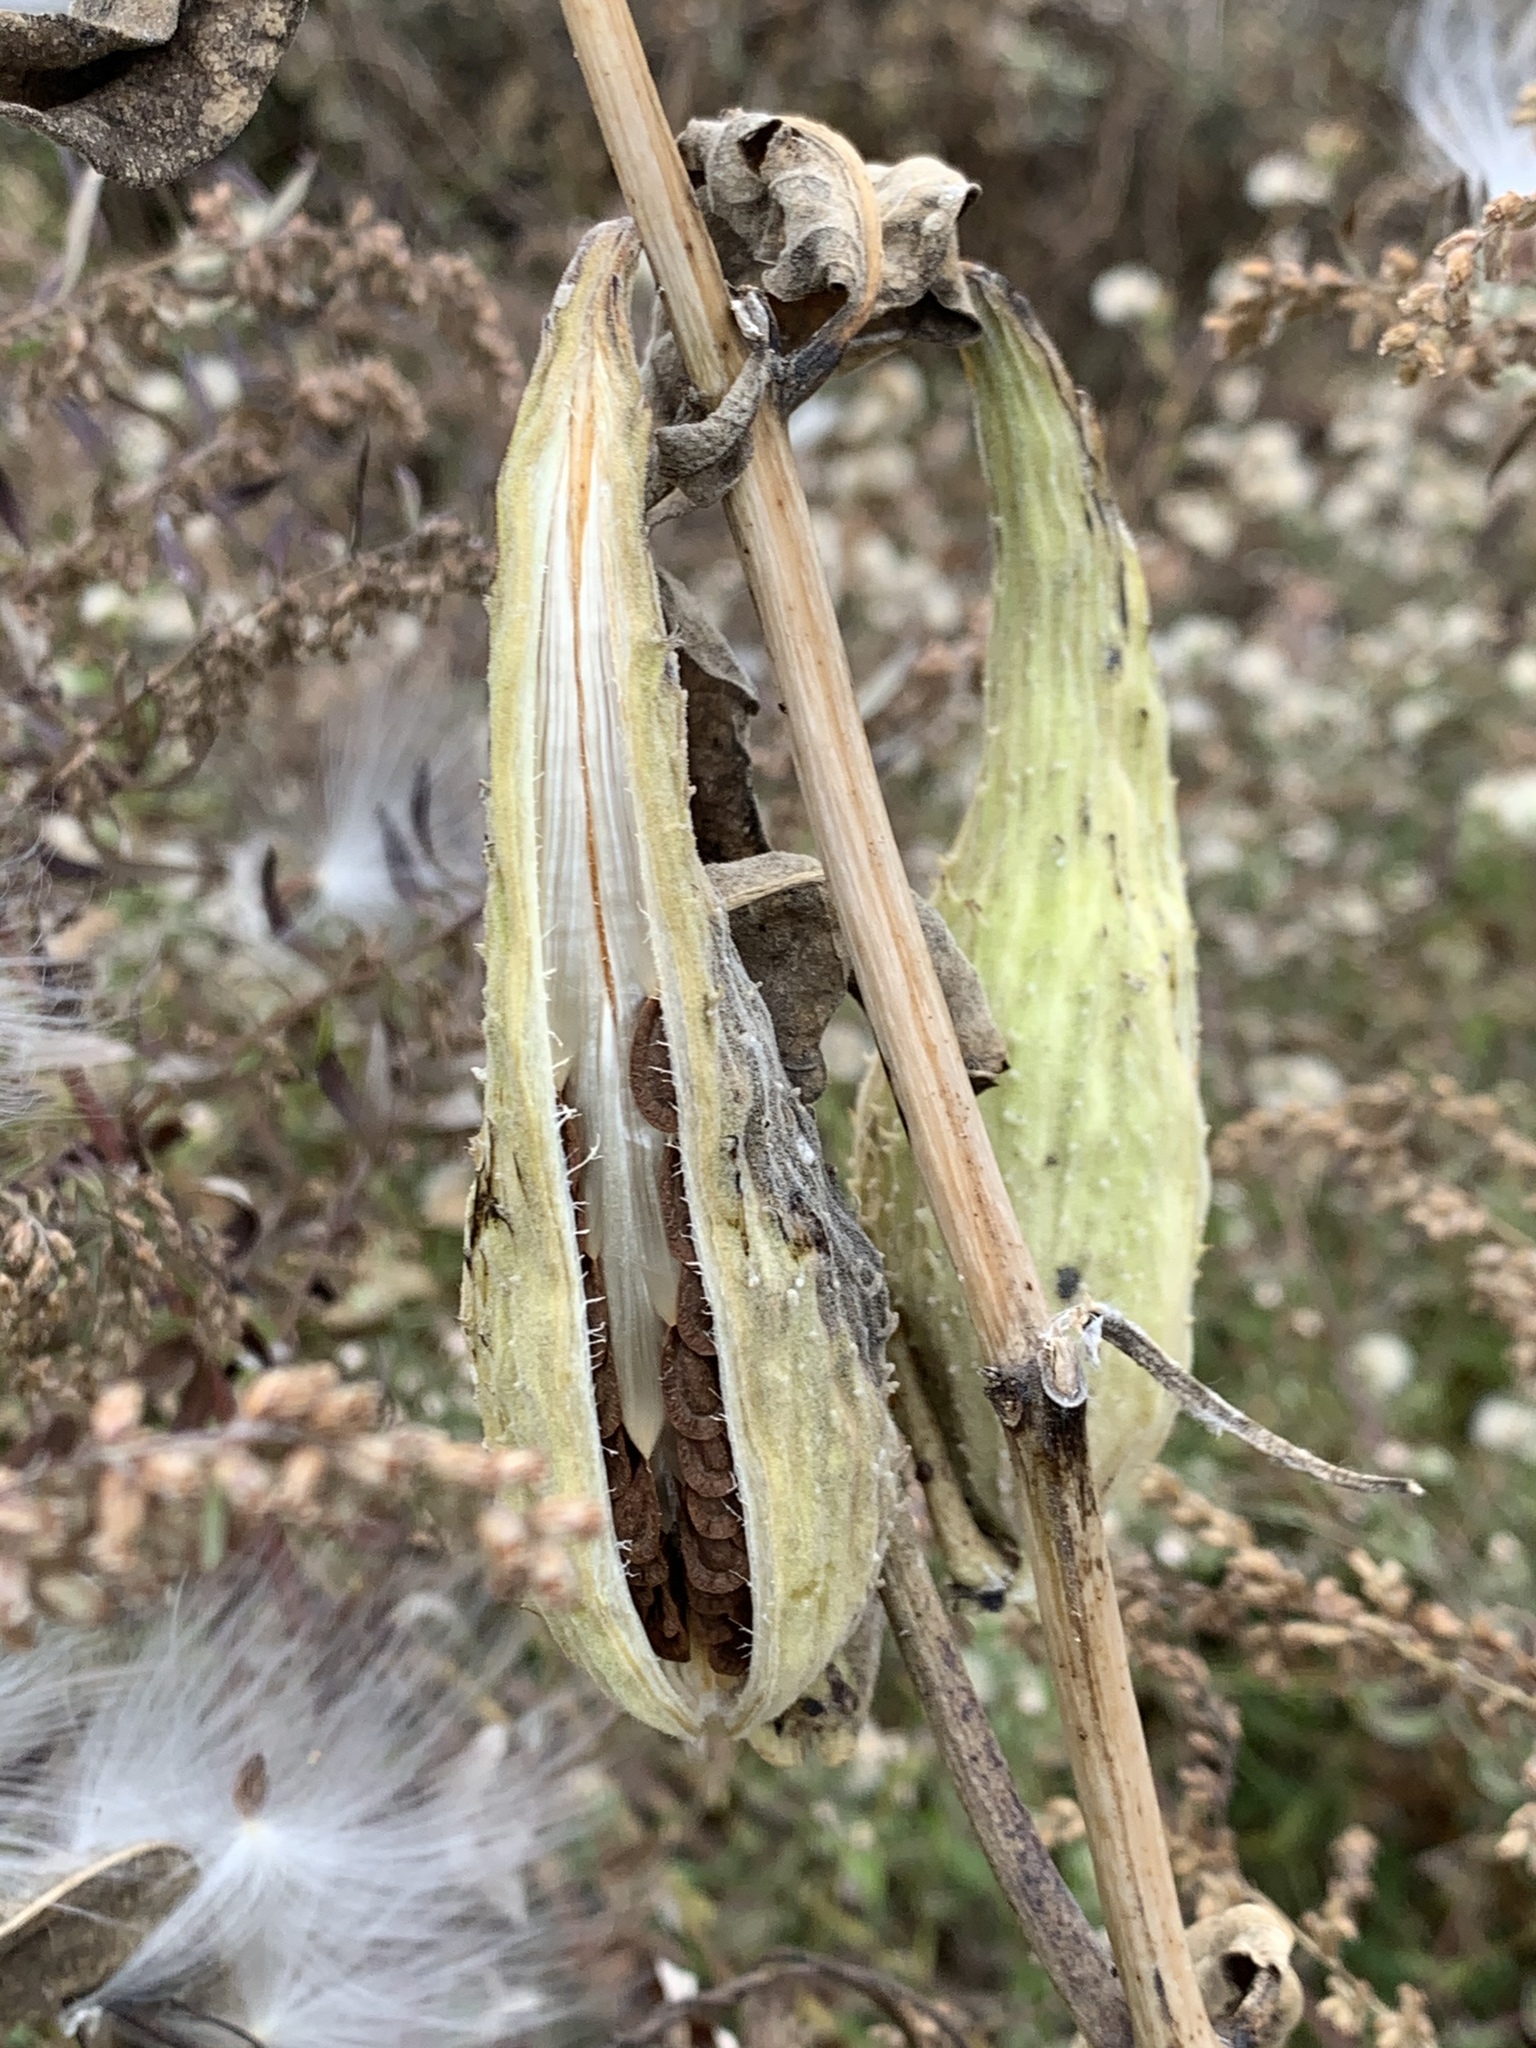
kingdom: Plantae
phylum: Tracheophyta
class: Magnoliopsida
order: Gentianales
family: Apocynaceae
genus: Asclepias
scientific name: Asclepias syriaca
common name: Common milkweed
